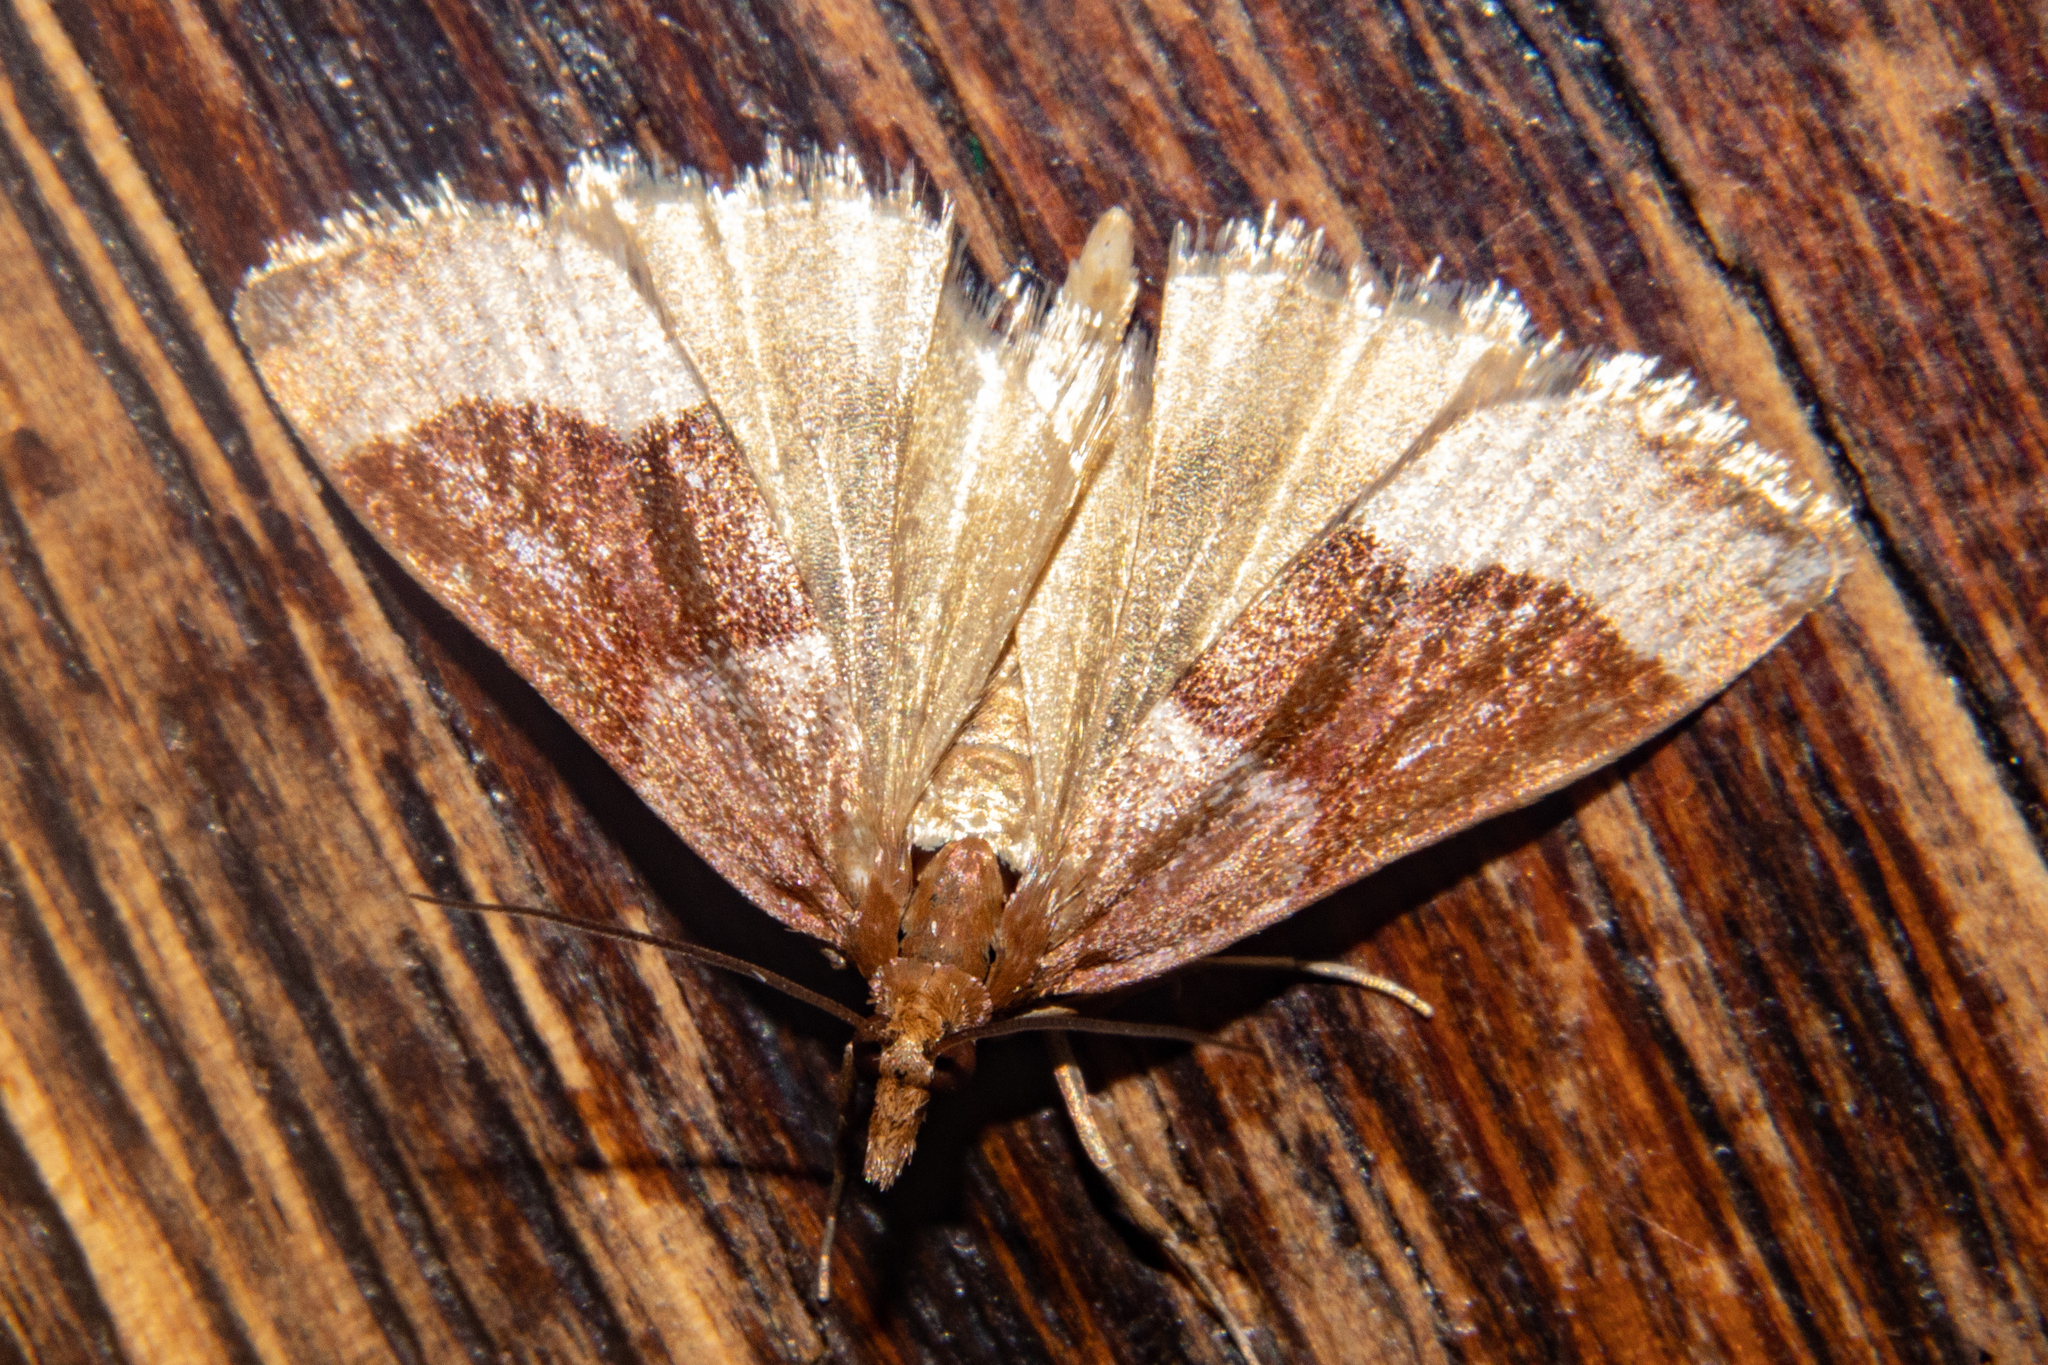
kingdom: Animalia
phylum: Arthropoda
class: Insecta
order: Lepidoptera
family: Crambidae
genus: Eudonia
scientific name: Eudonia feredayi
